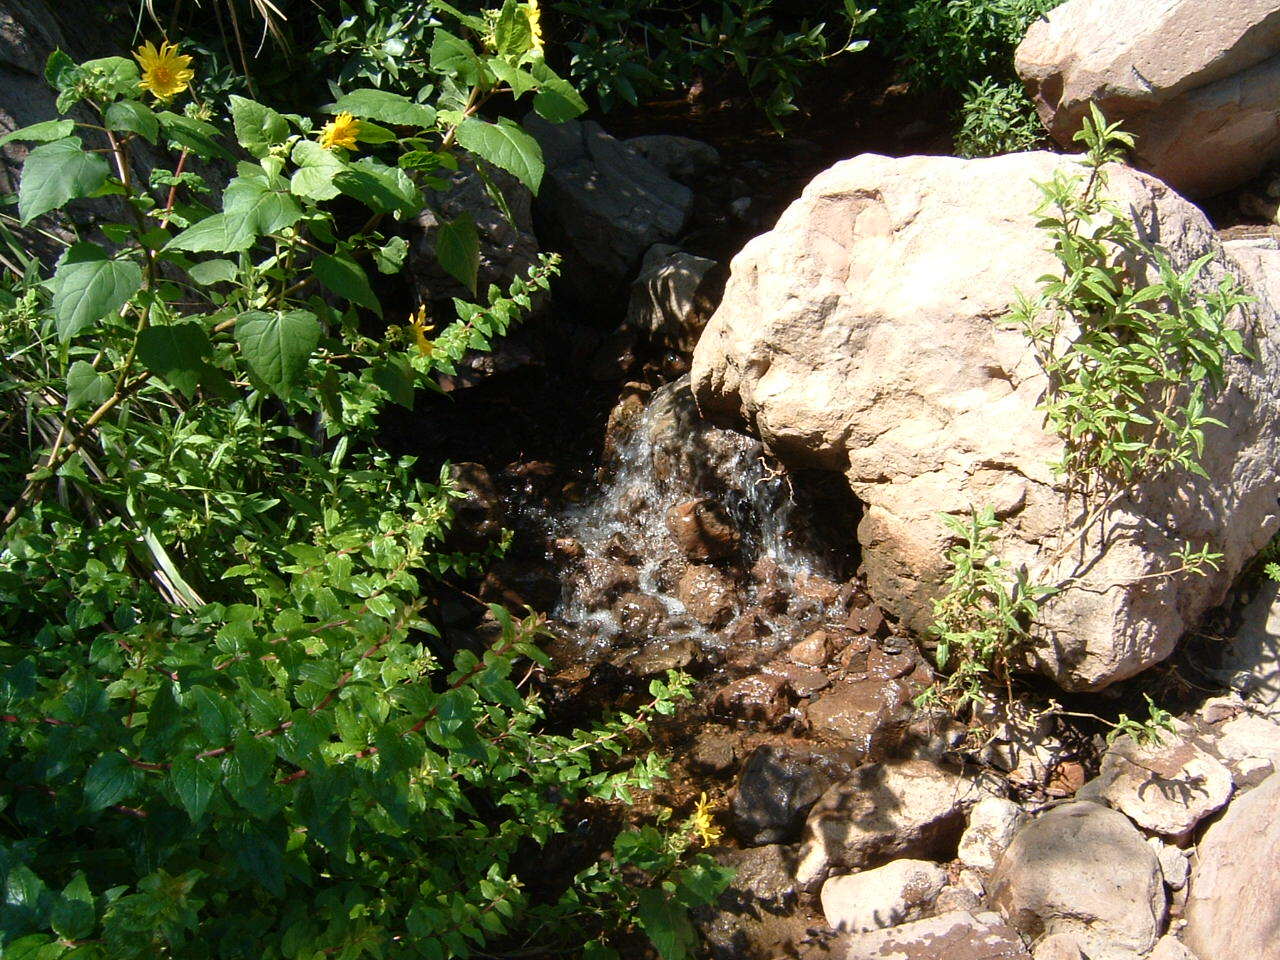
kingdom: Plantae
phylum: Tracheophyta
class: Magnoliopsida
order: Asterales
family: Asteraceae
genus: Venegasia
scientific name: Venegasia carpesioides
